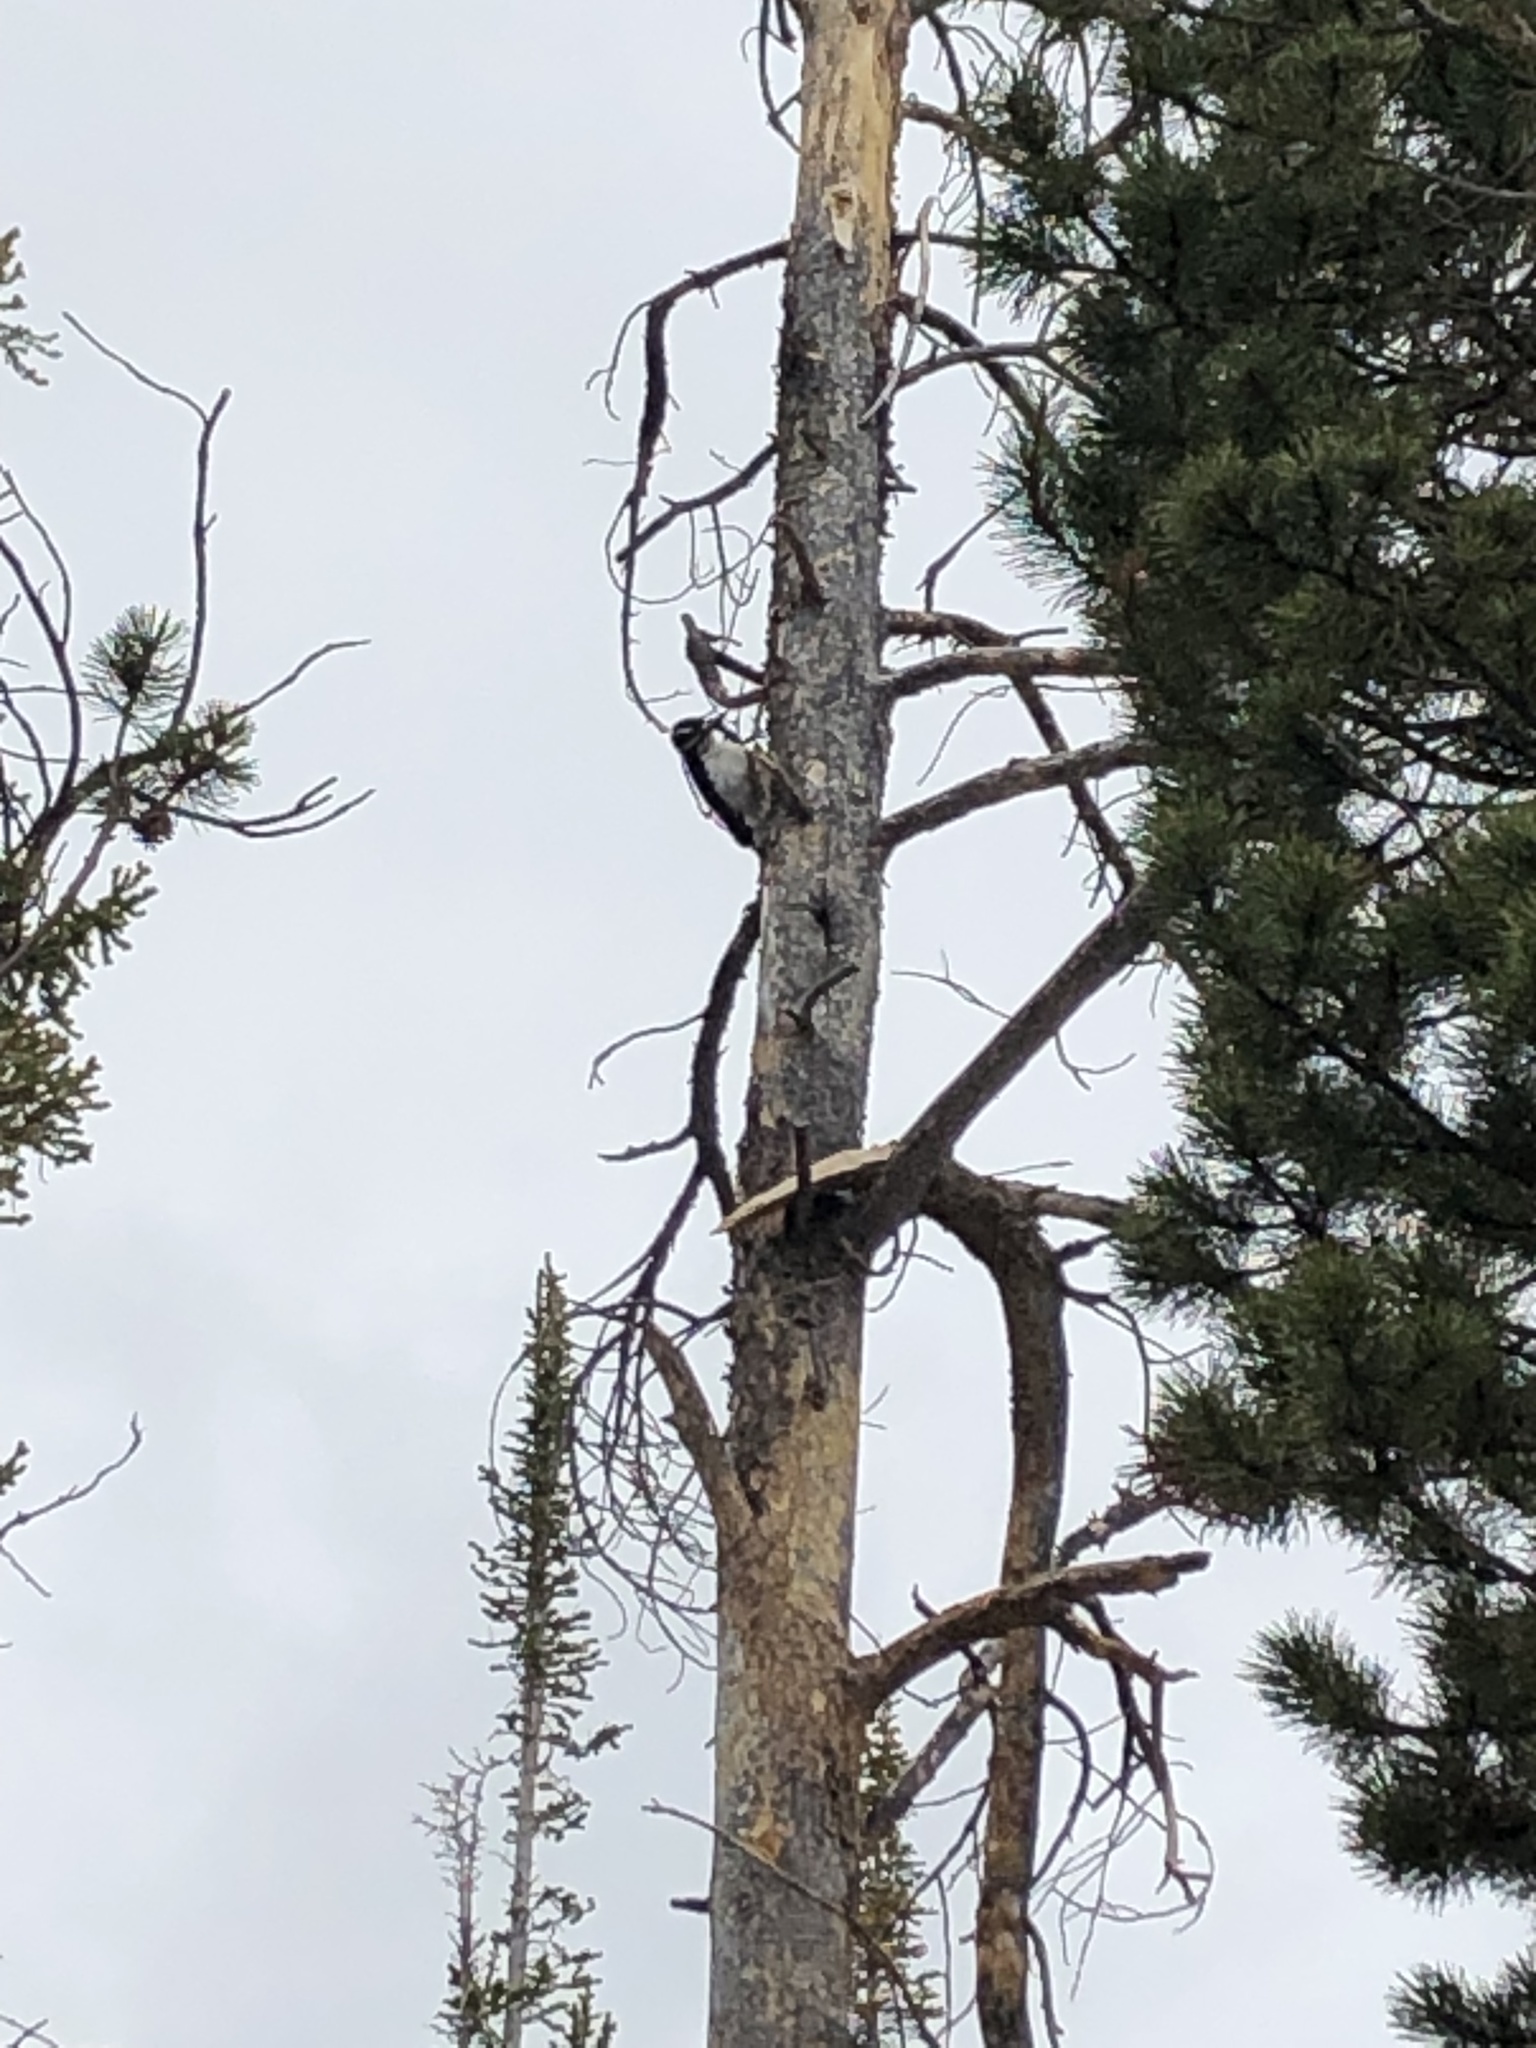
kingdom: Animalia
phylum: Chordata
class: Aves
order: Piciformes
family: Picidae
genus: Leuconotopicus
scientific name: Leuconotopicus villosus
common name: Hairy woodpecker
